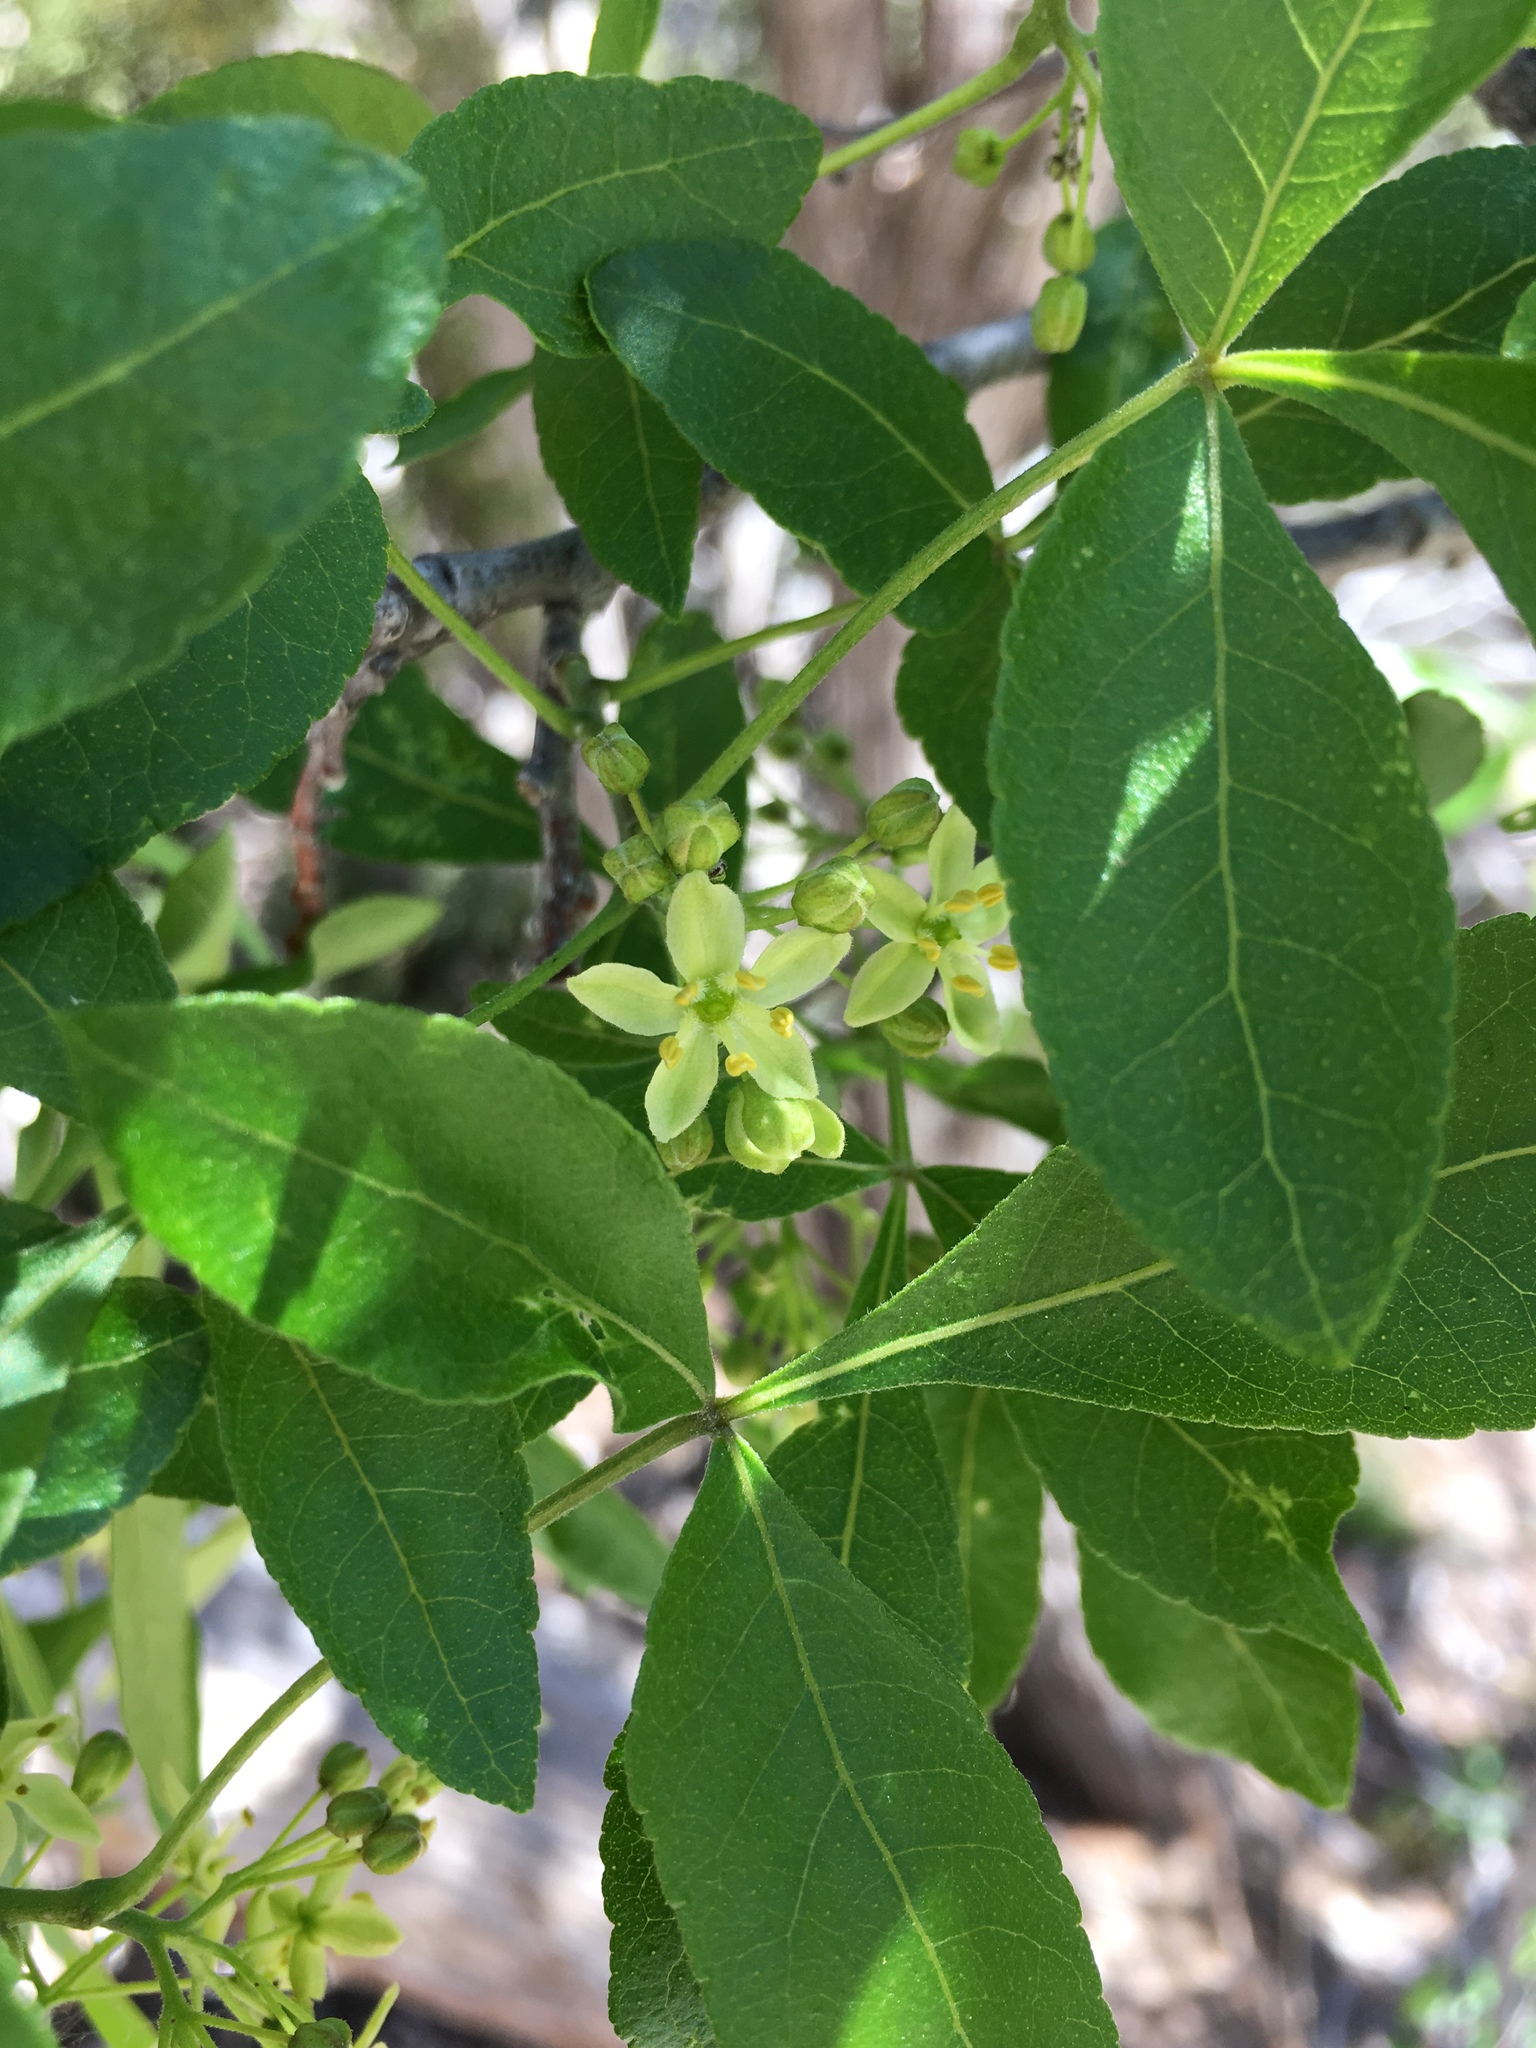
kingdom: Plantae
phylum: Tracheophyta
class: Magnoliopsida
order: Sapindales
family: Rutaceae
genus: Ptelea
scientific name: Ptelea trifoliata
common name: Common hop-tree
